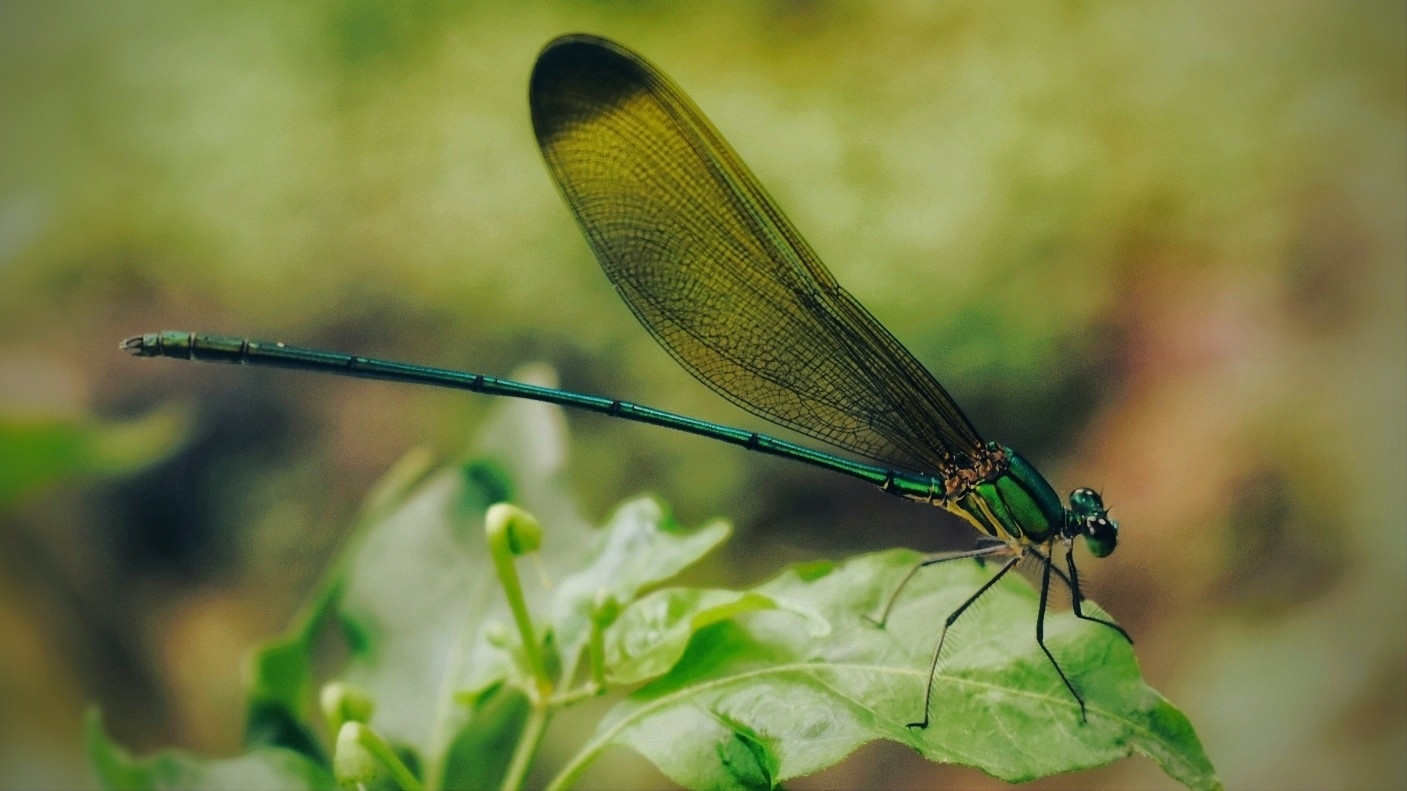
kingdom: Animalia
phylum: Arthropoda
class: Insecta
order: Odonata
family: Calopterygidae
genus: Vestalis
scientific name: Vestalis apicalis
